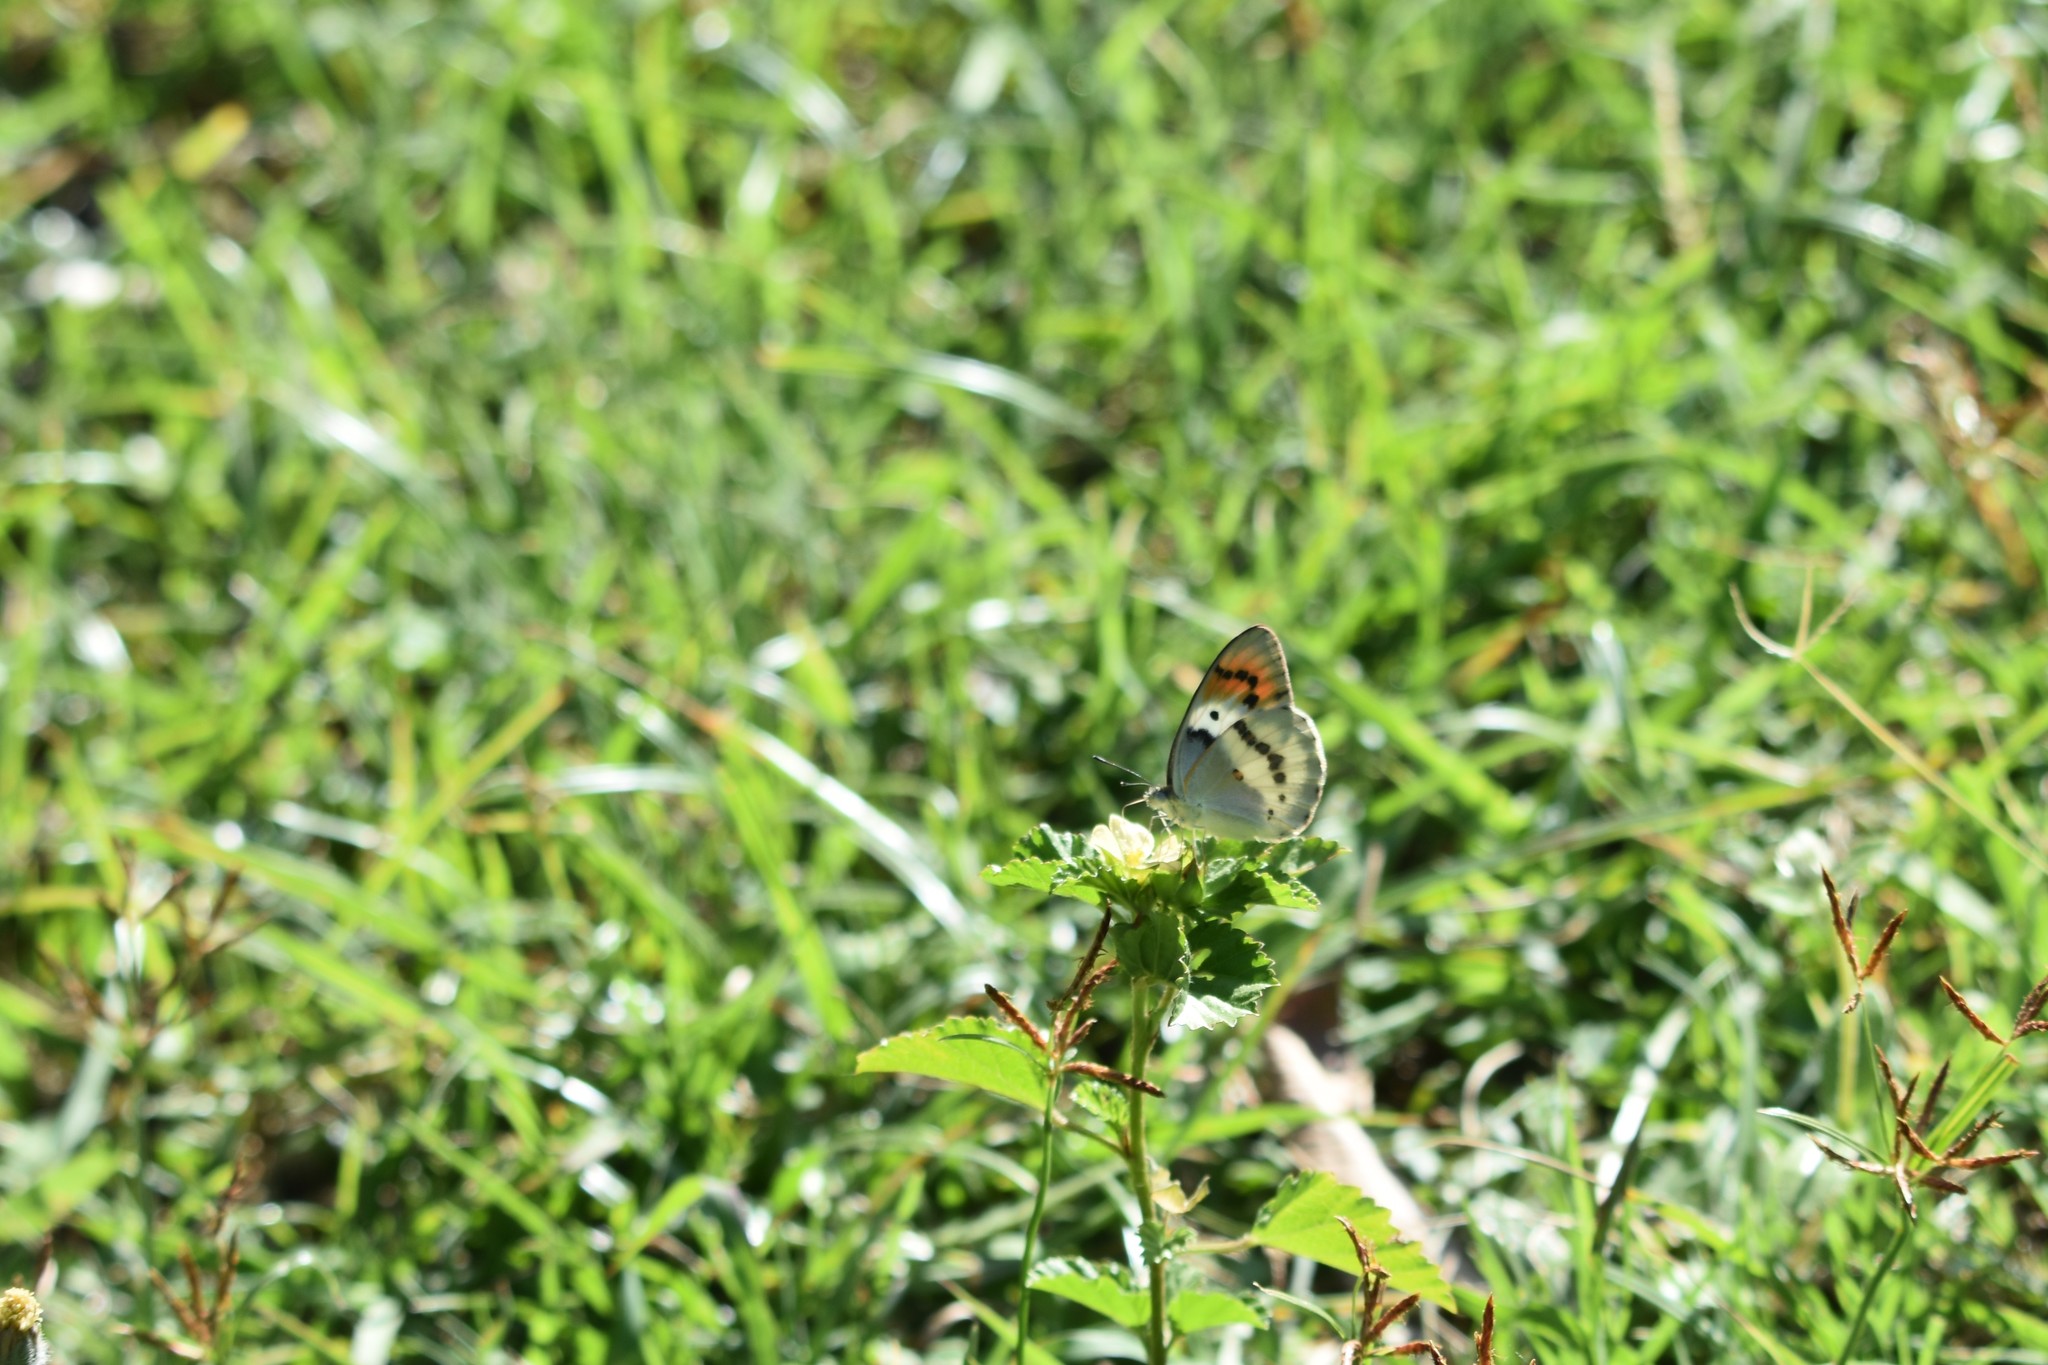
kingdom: Animalia
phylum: Arthropoda
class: Insecta
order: Lepidoptera
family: Pieridae
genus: Colotis
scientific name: Colotis annae
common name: Scarlet tip
